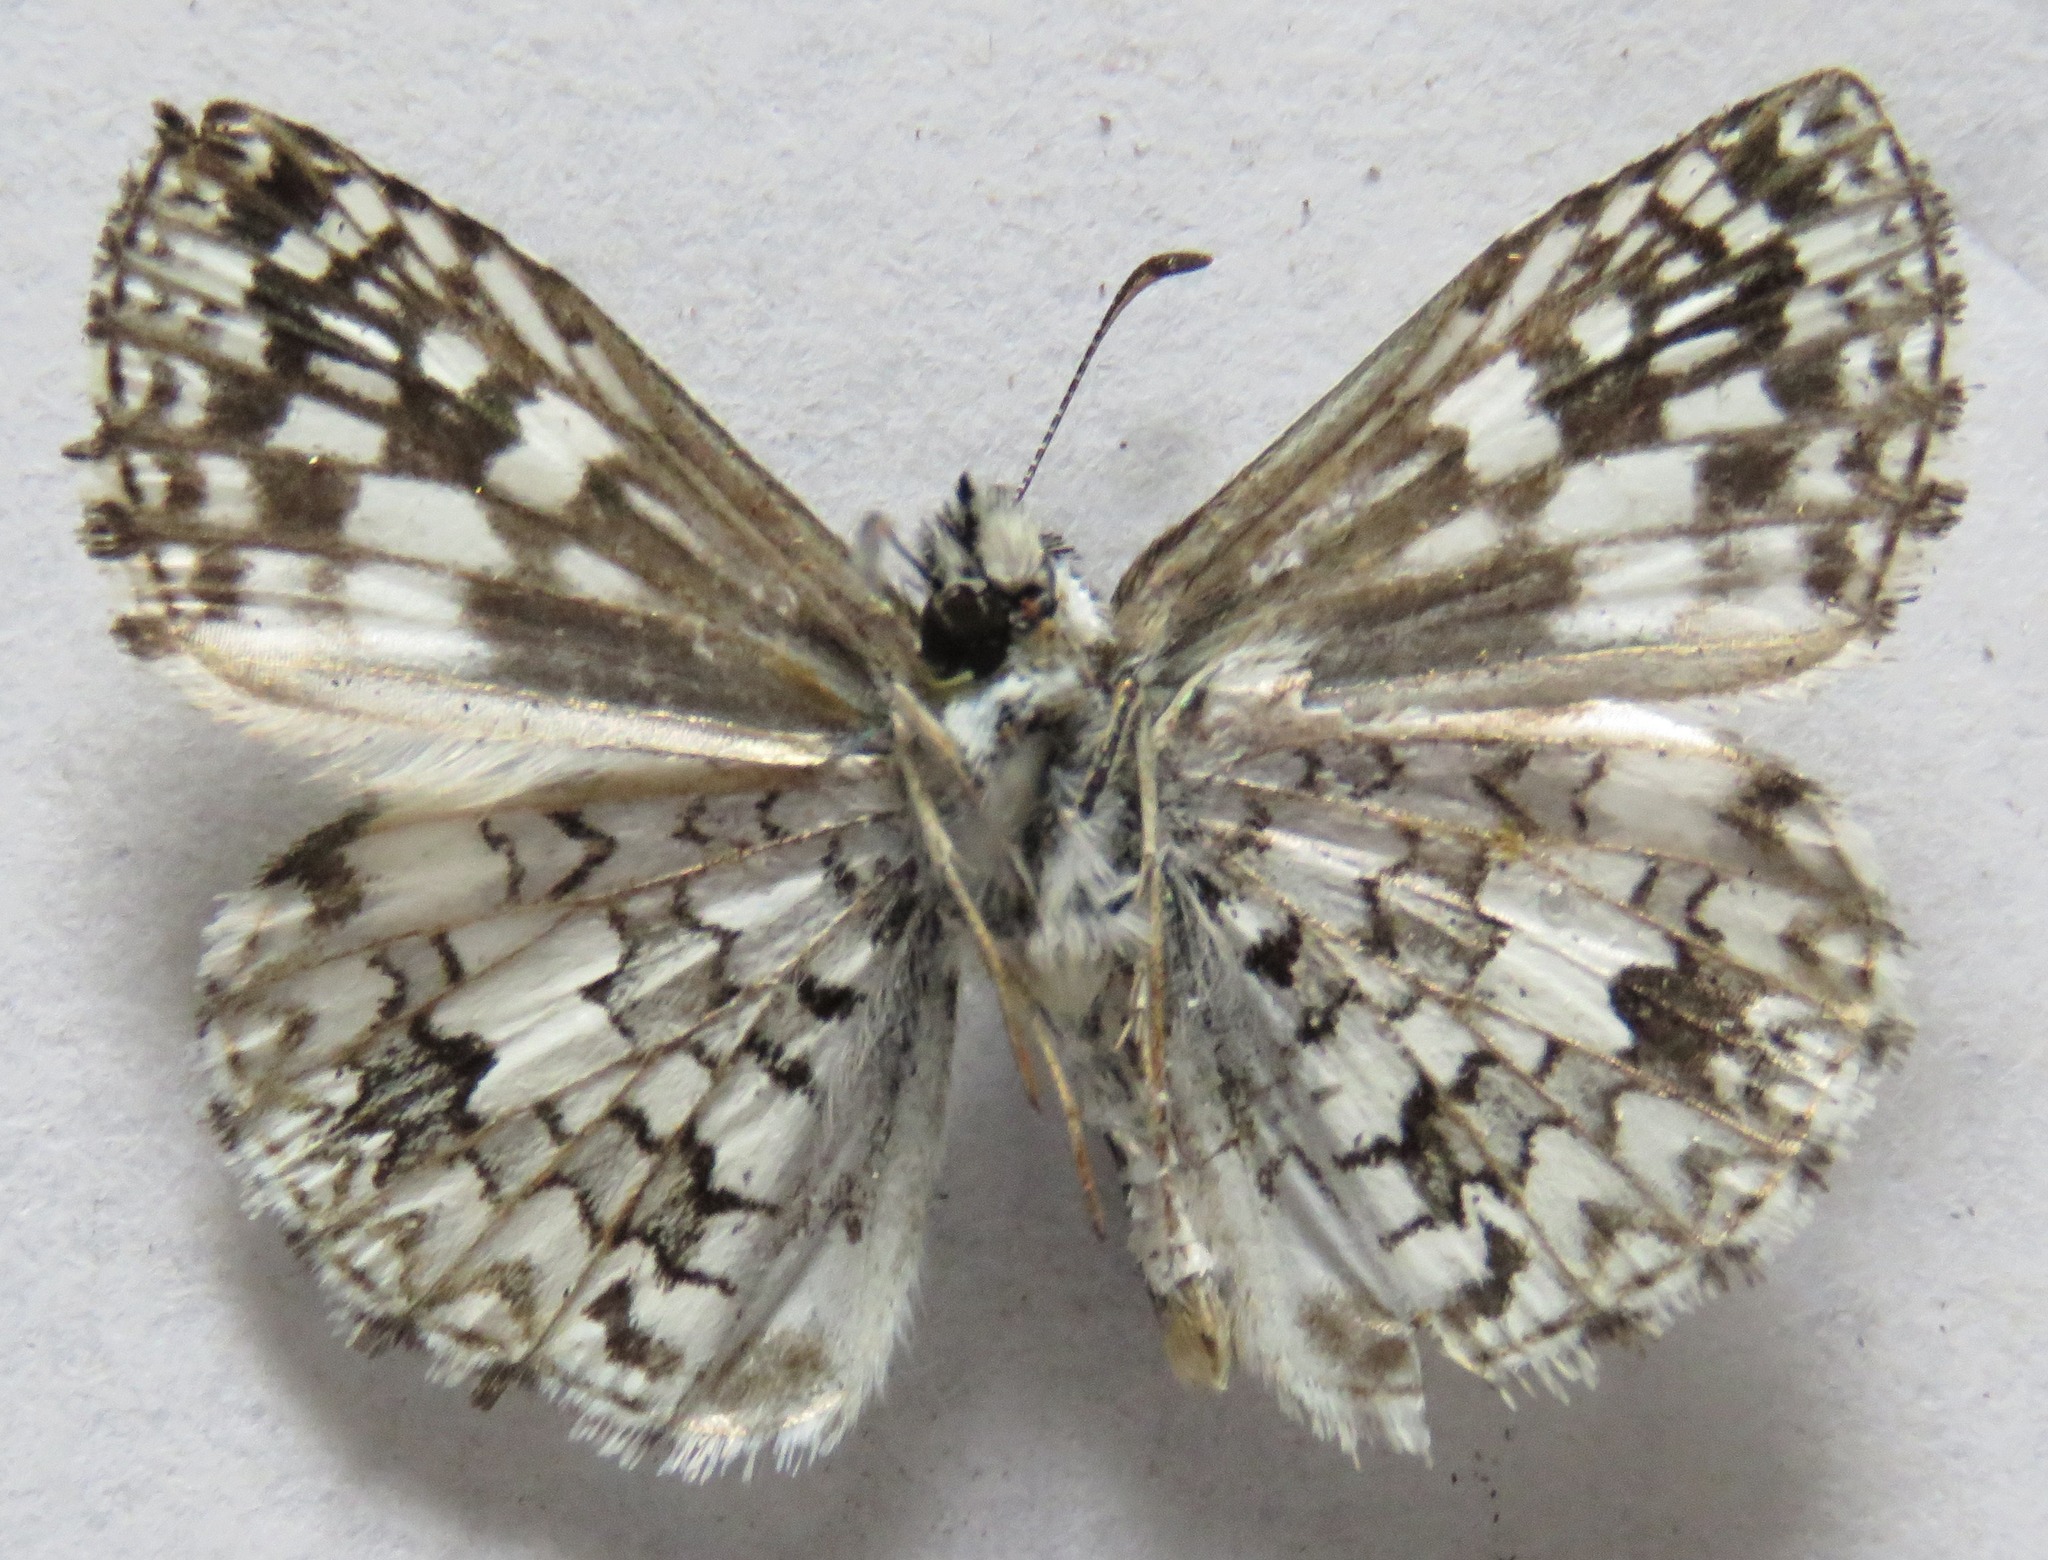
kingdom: Animalia
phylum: Arthropoda
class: Insecta
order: Lepidoptera
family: Hesperiidae
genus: Pyrgus
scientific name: Pyrgus oileus
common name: Tropical checkered-skipper
